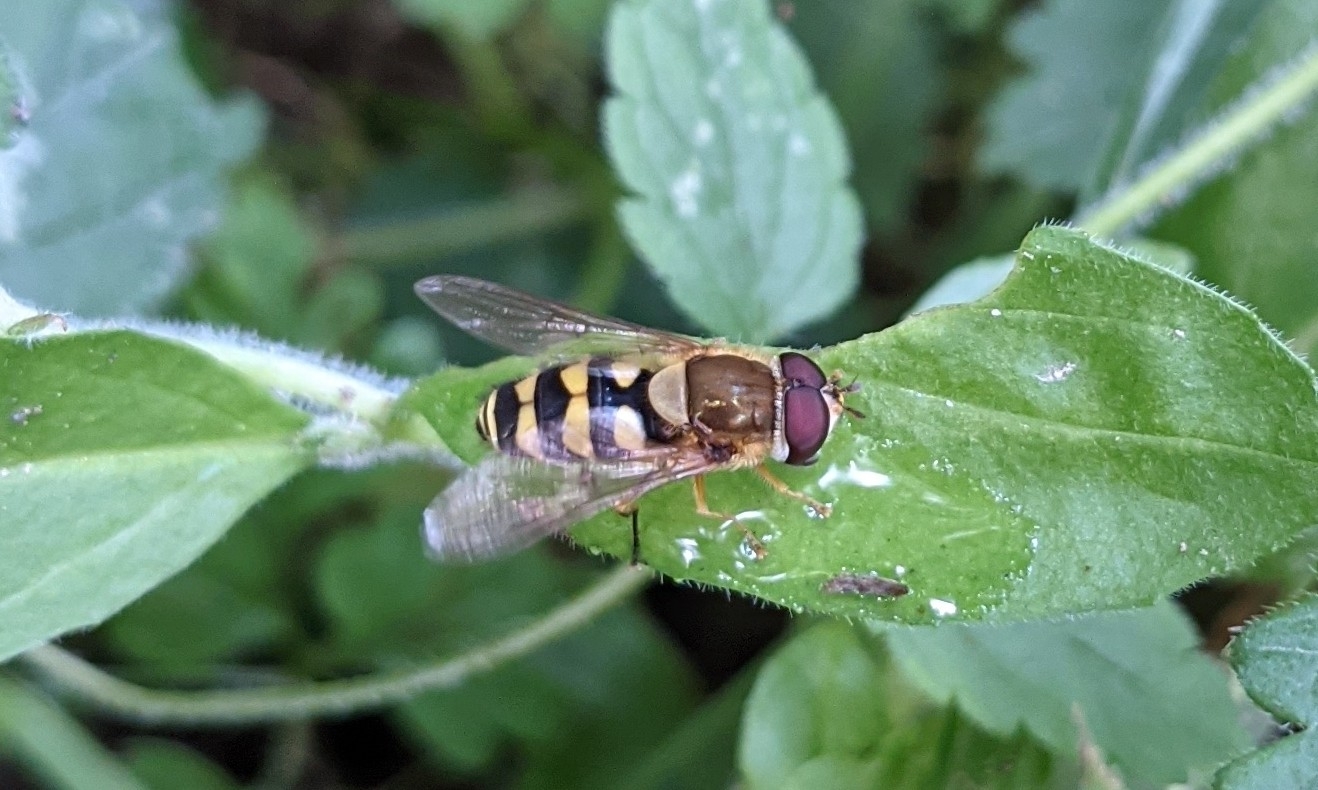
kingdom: Animalia
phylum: Arthropoda
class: Insecta
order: Diptera
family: Syrphidae
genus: Syrphus
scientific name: Syrphus
